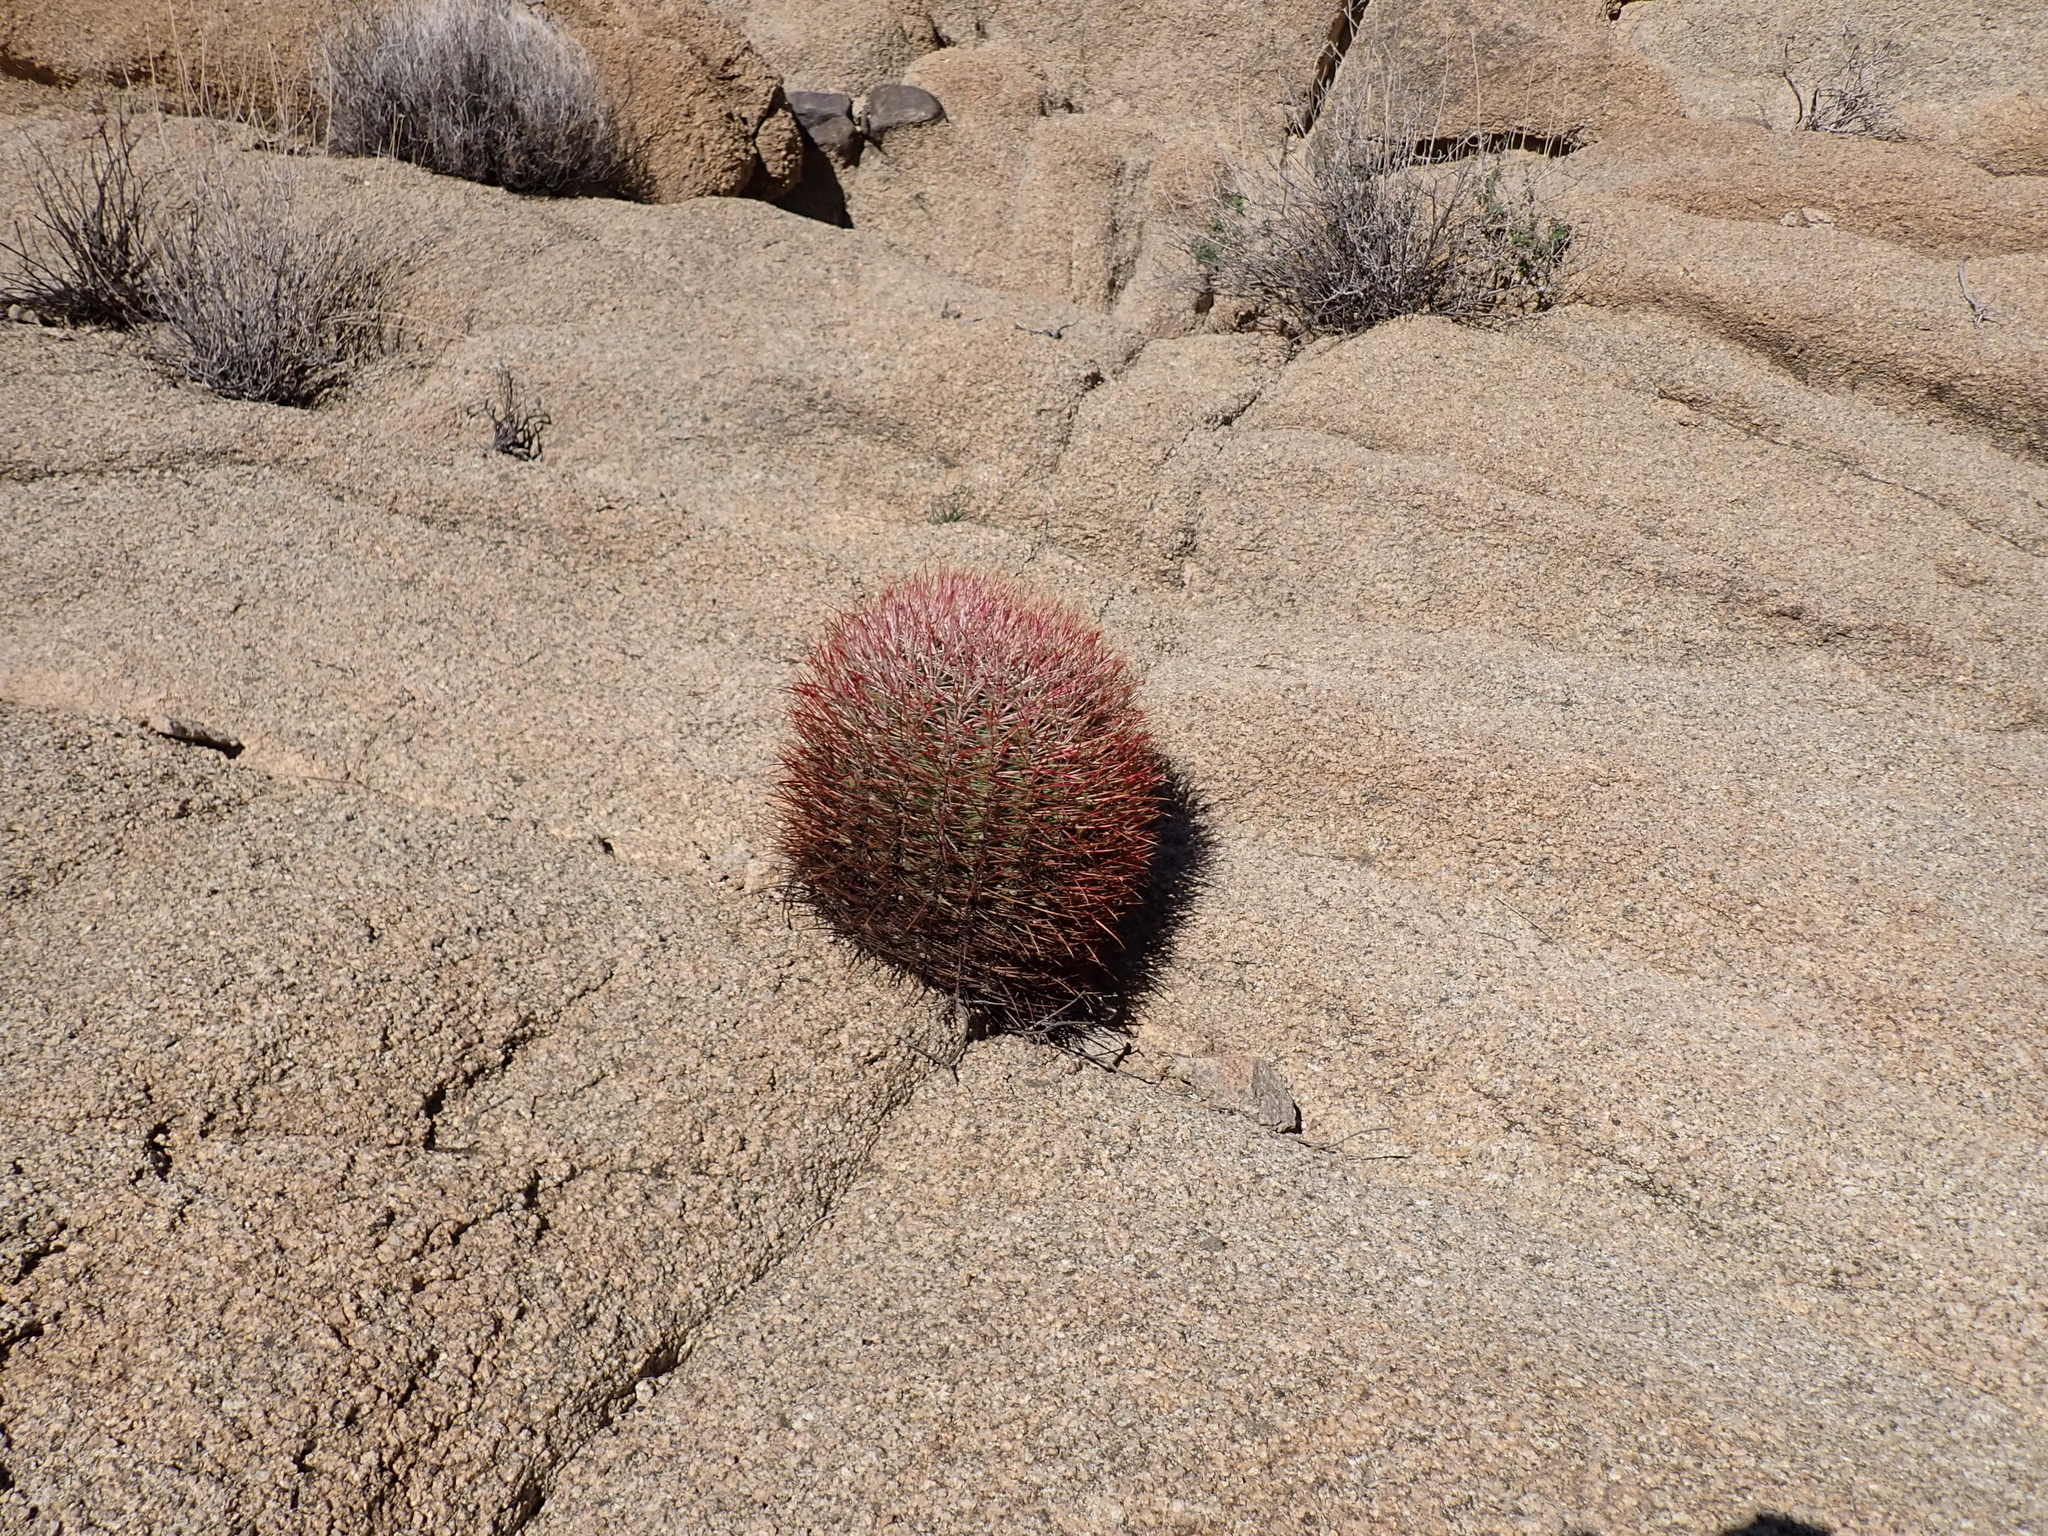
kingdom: Plantae
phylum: Tracheophyta
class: Magnoliopsida
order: Caryophyllales
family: Cactaceae
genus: Ferocactus
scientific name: Ferocactus cylindraceus
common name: California barrel cactus
